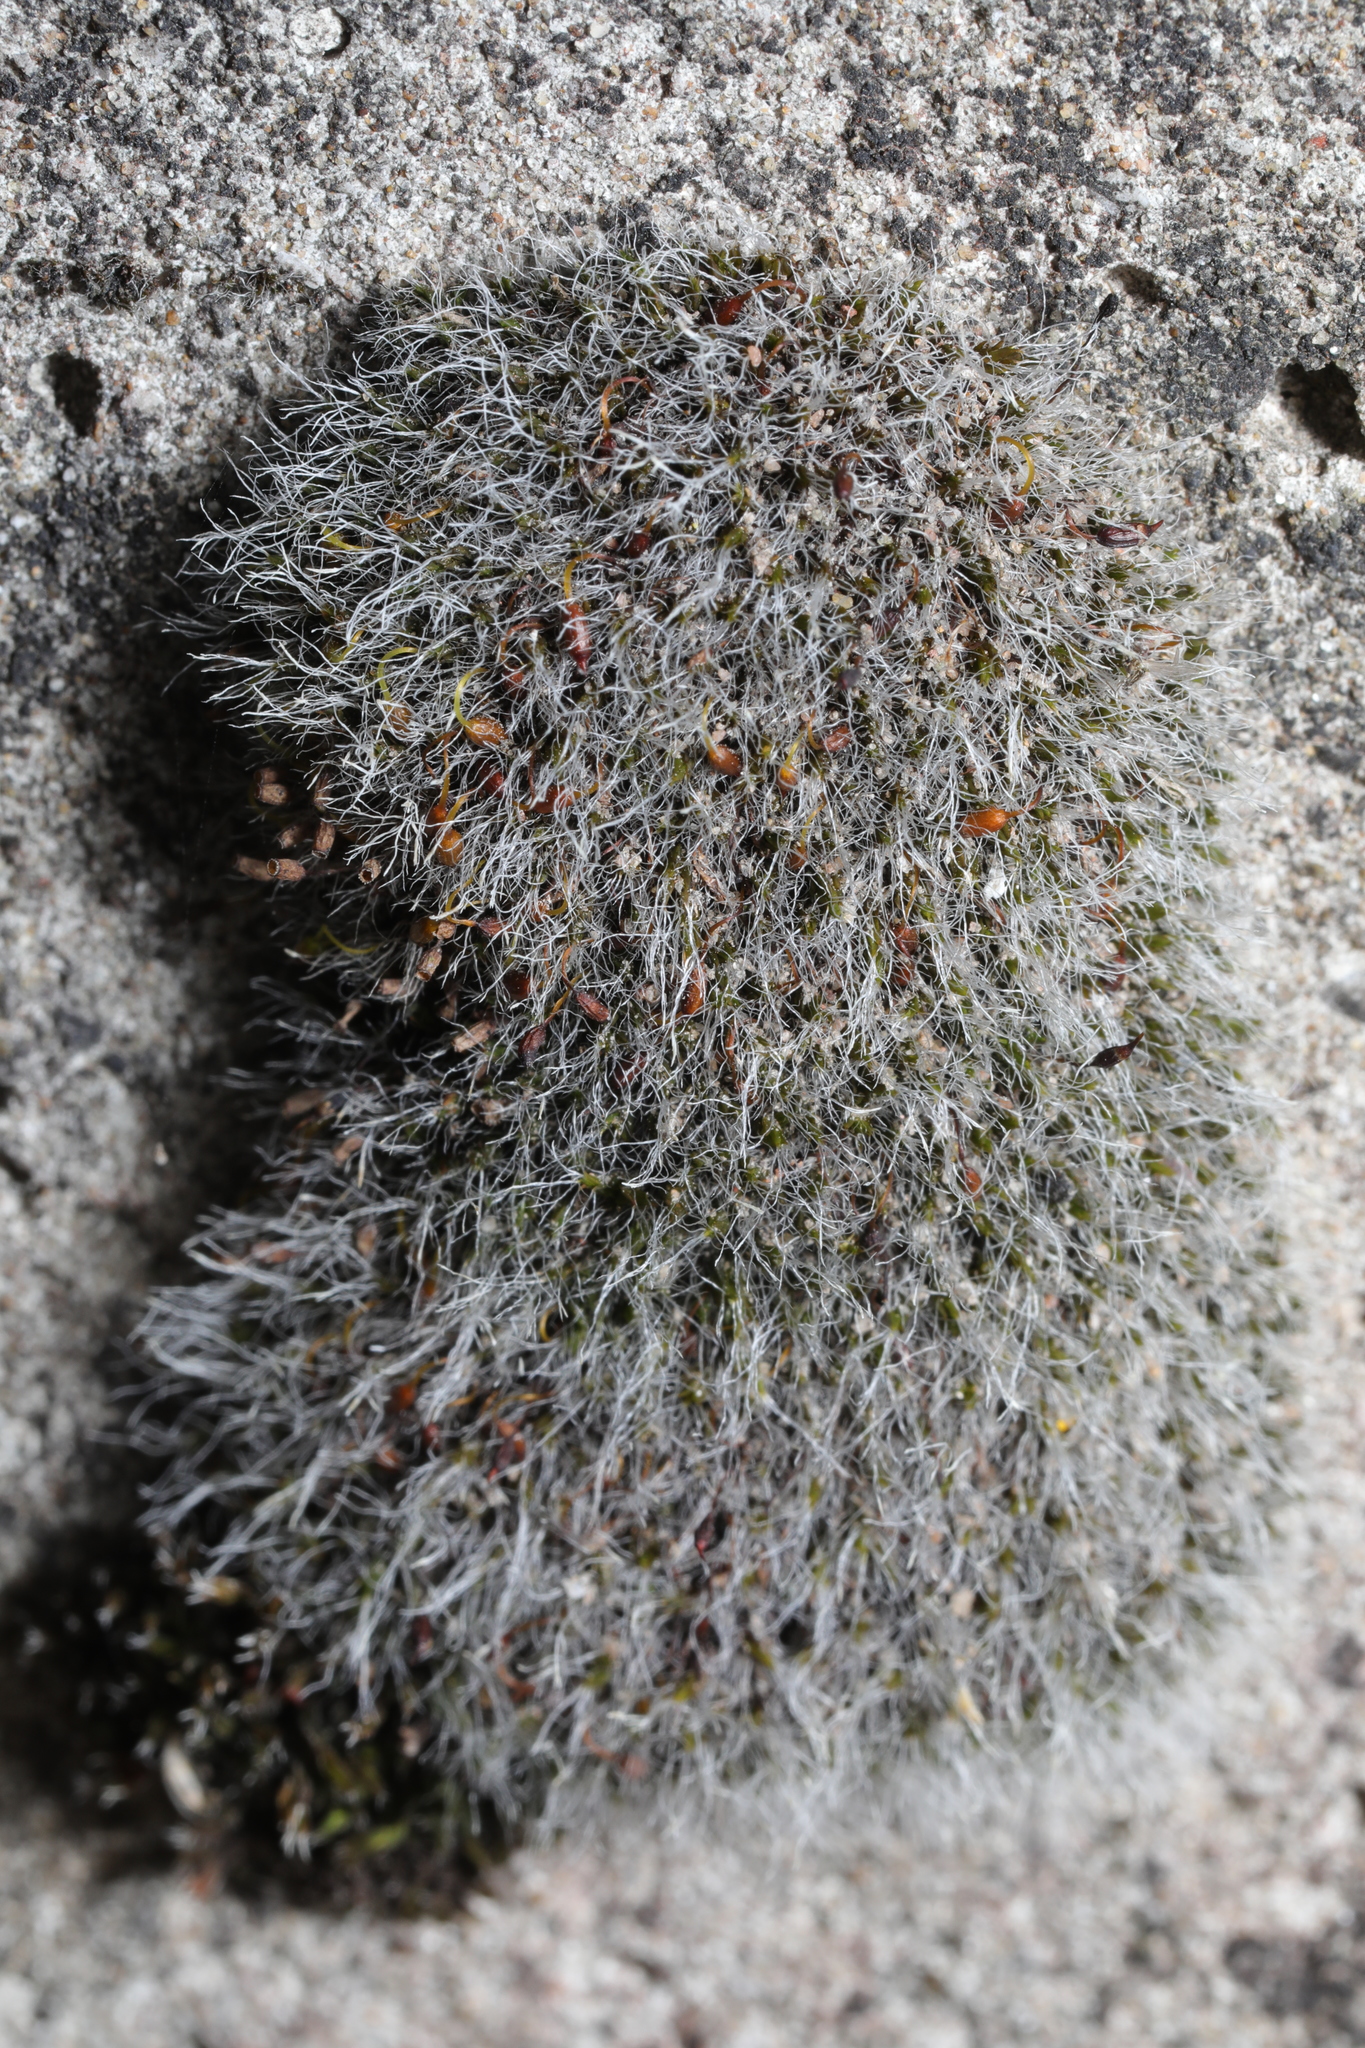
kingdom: Plantae
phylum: Bryophyta
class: Bryopsida
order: Grimmiales
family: Grimmiaceae
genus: Grimmia
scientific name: Grimmia pulvinata
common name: Grey-cushioned grimmia
